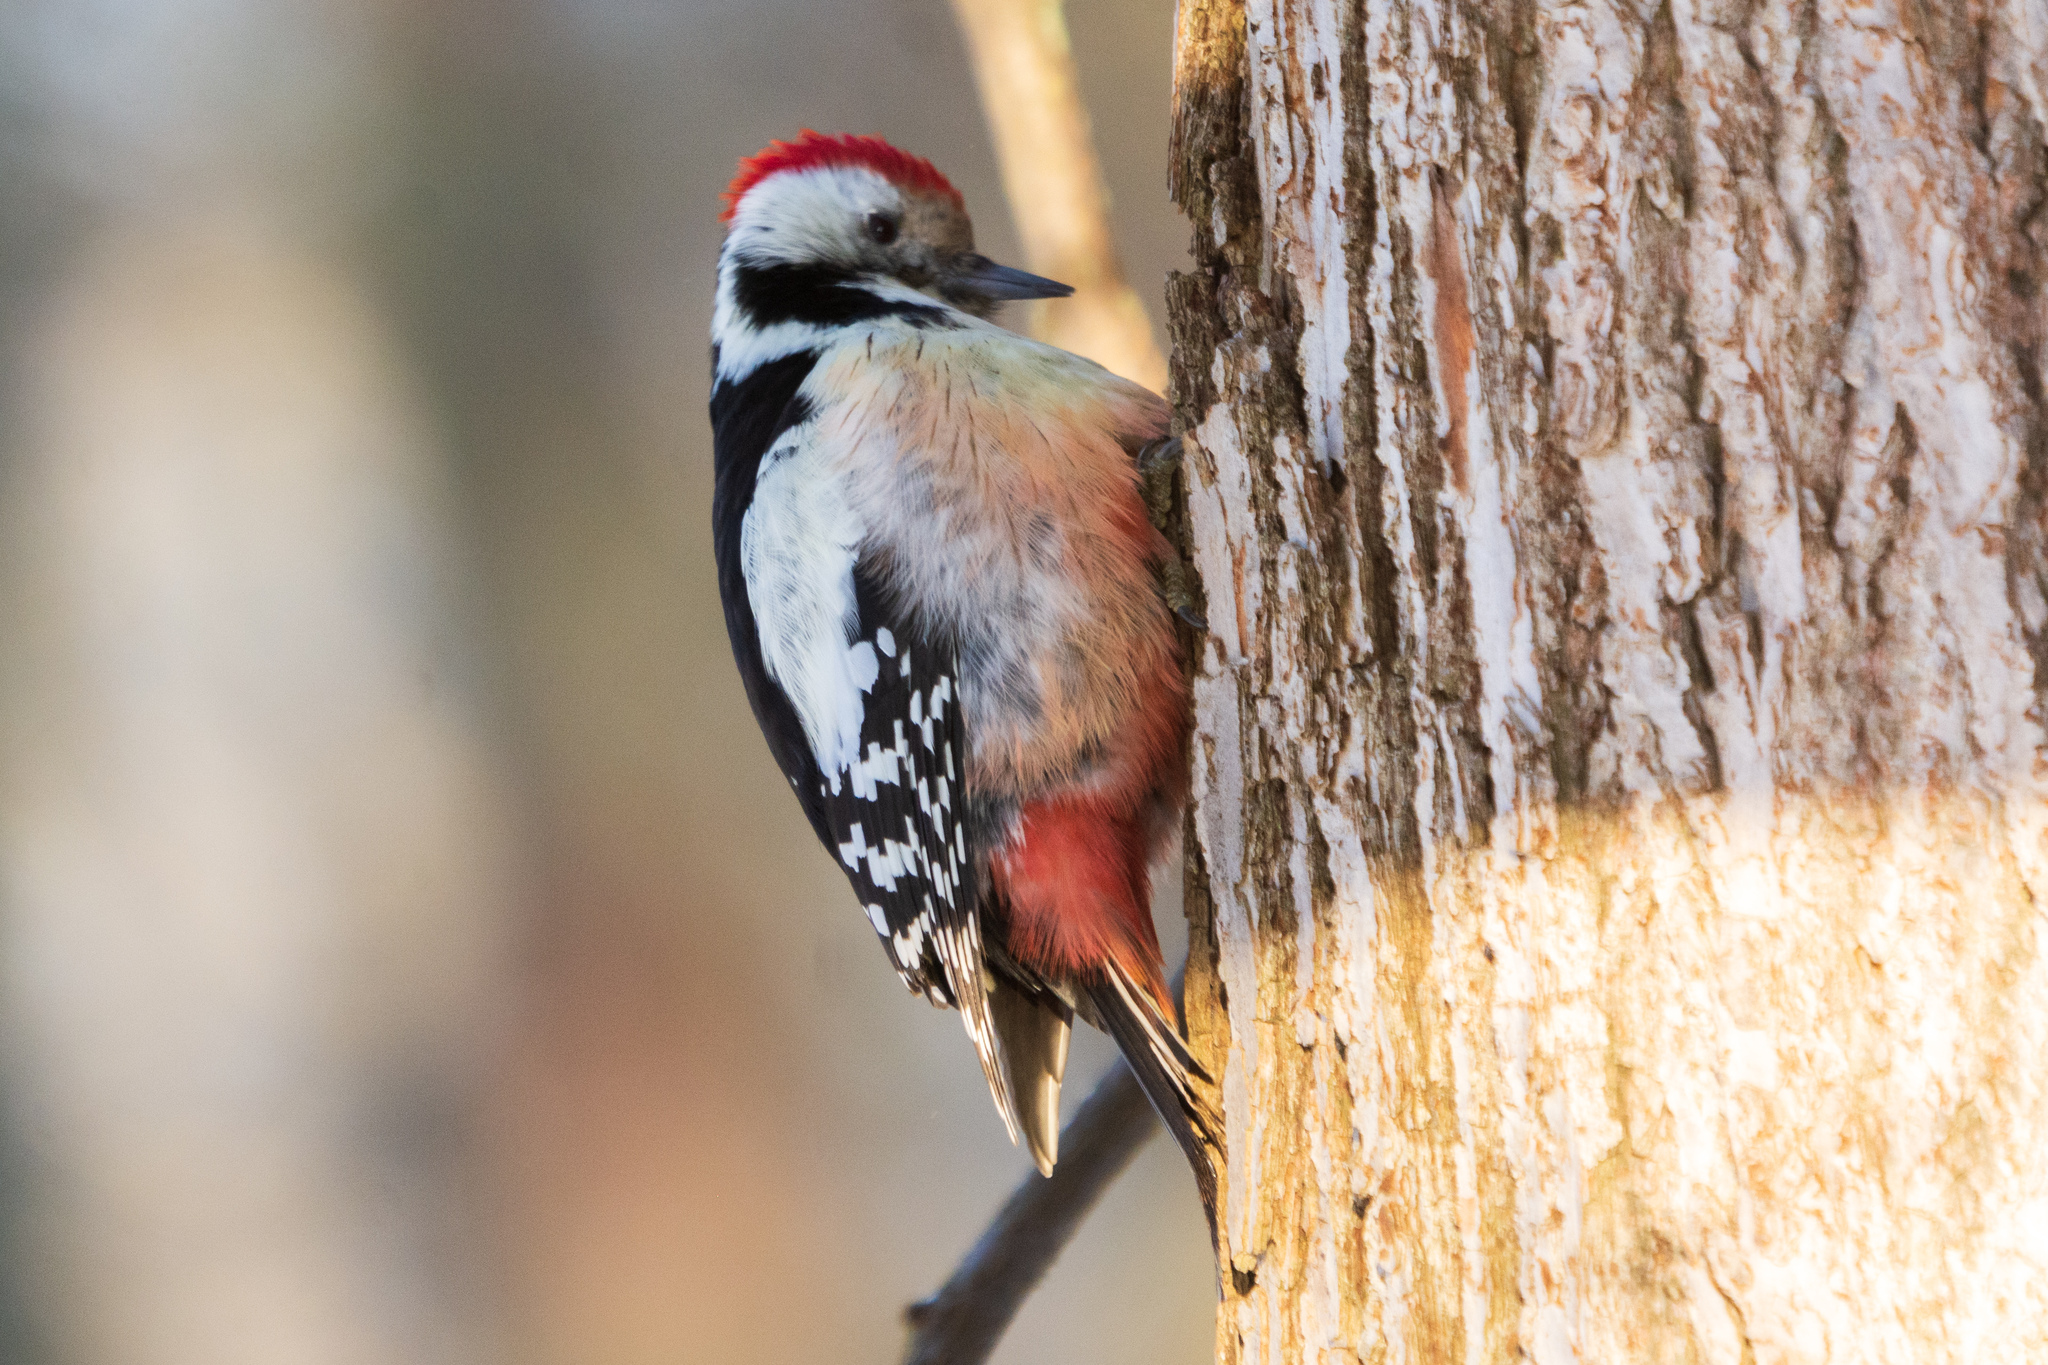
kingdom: Animalia
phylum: Chordata
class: Aves
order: Piciformes
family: Picidae
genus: Dendrocoptes
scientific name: Dendrocoptes medius
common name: Middle spotted woodpecker
